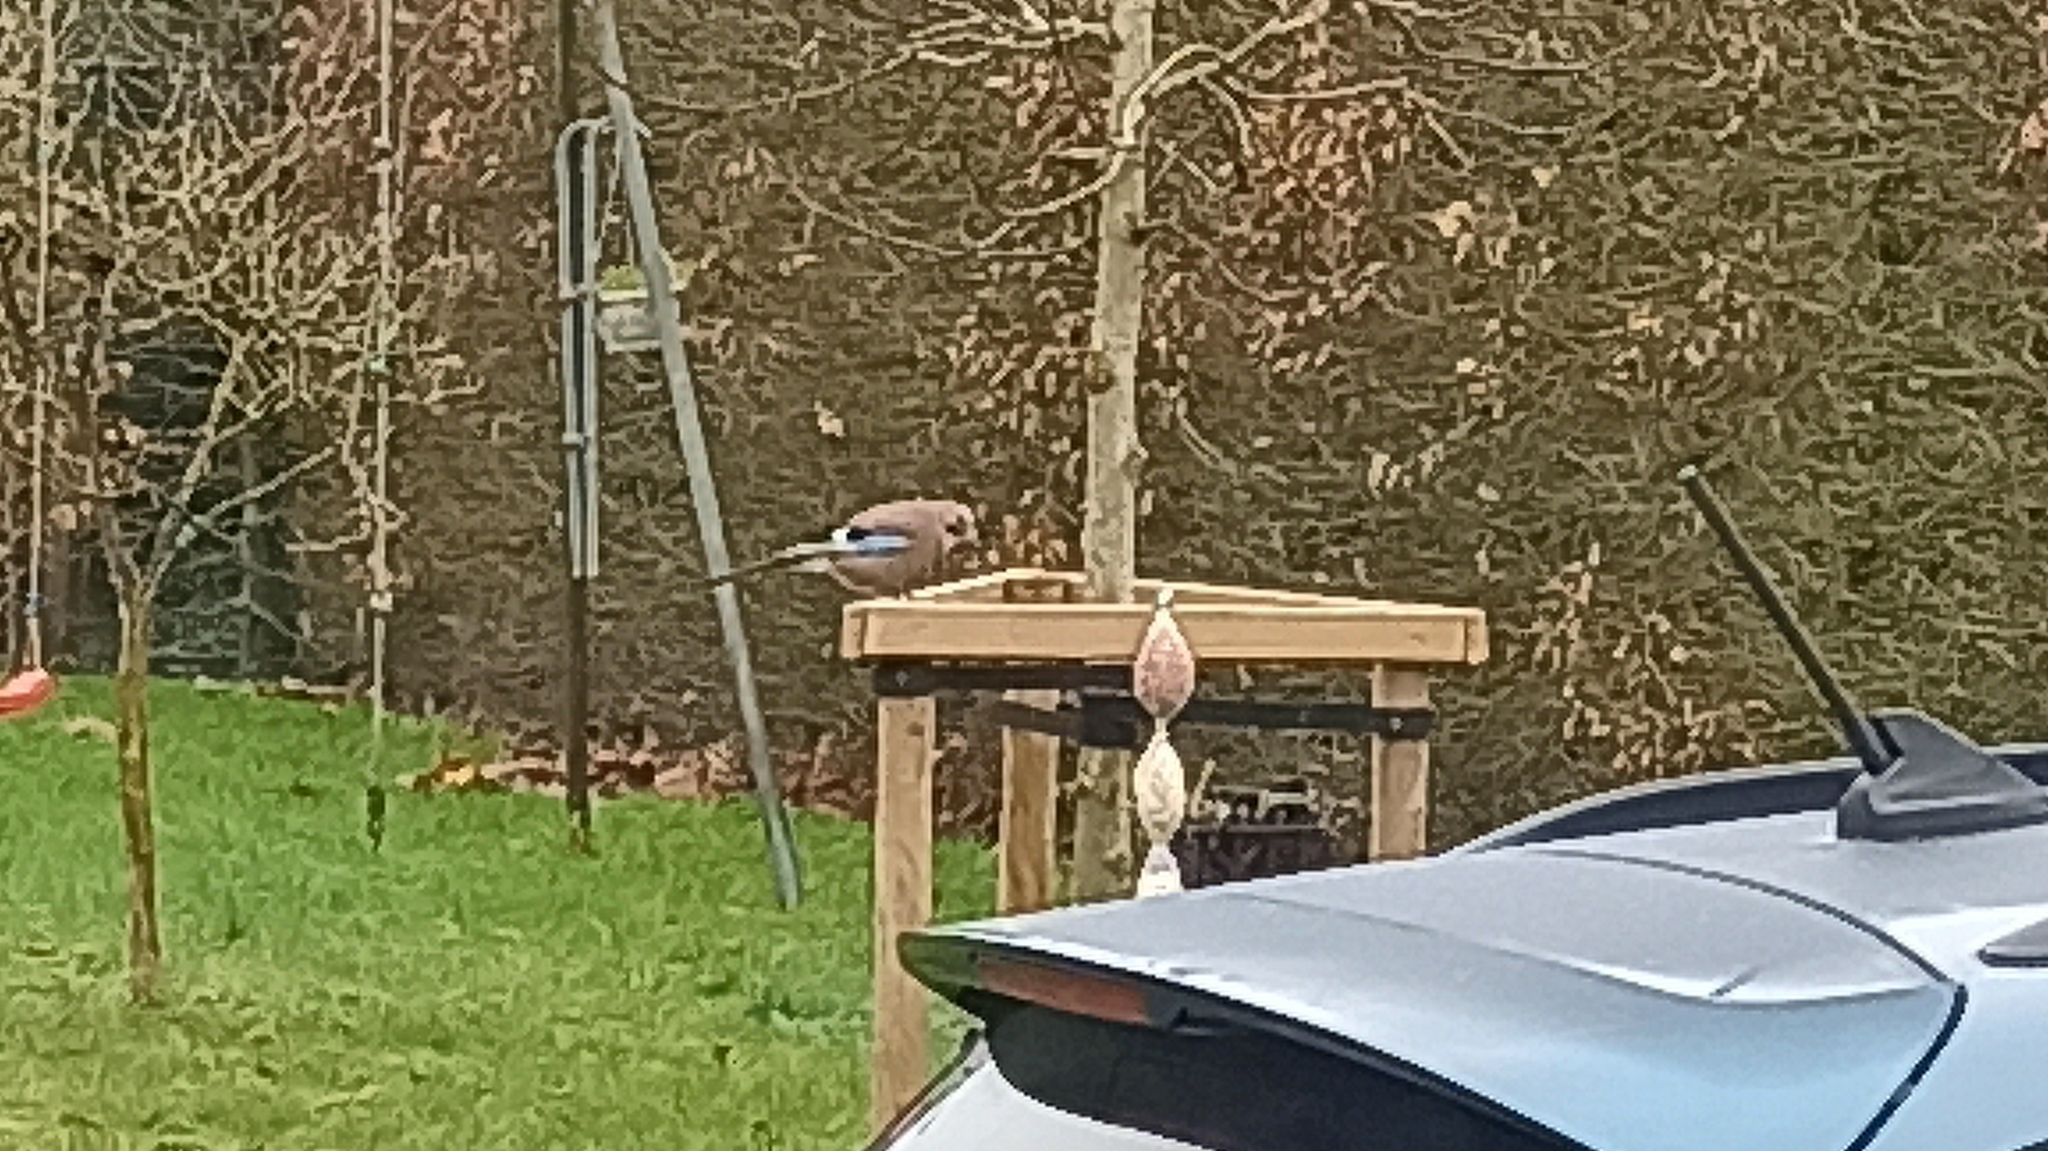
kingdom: Animalia
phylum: Chordata
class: Aves
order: Passeriformes
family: Corvidae
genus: Garrulus
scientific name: Garrulus glandarius
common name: Eurasian jay
